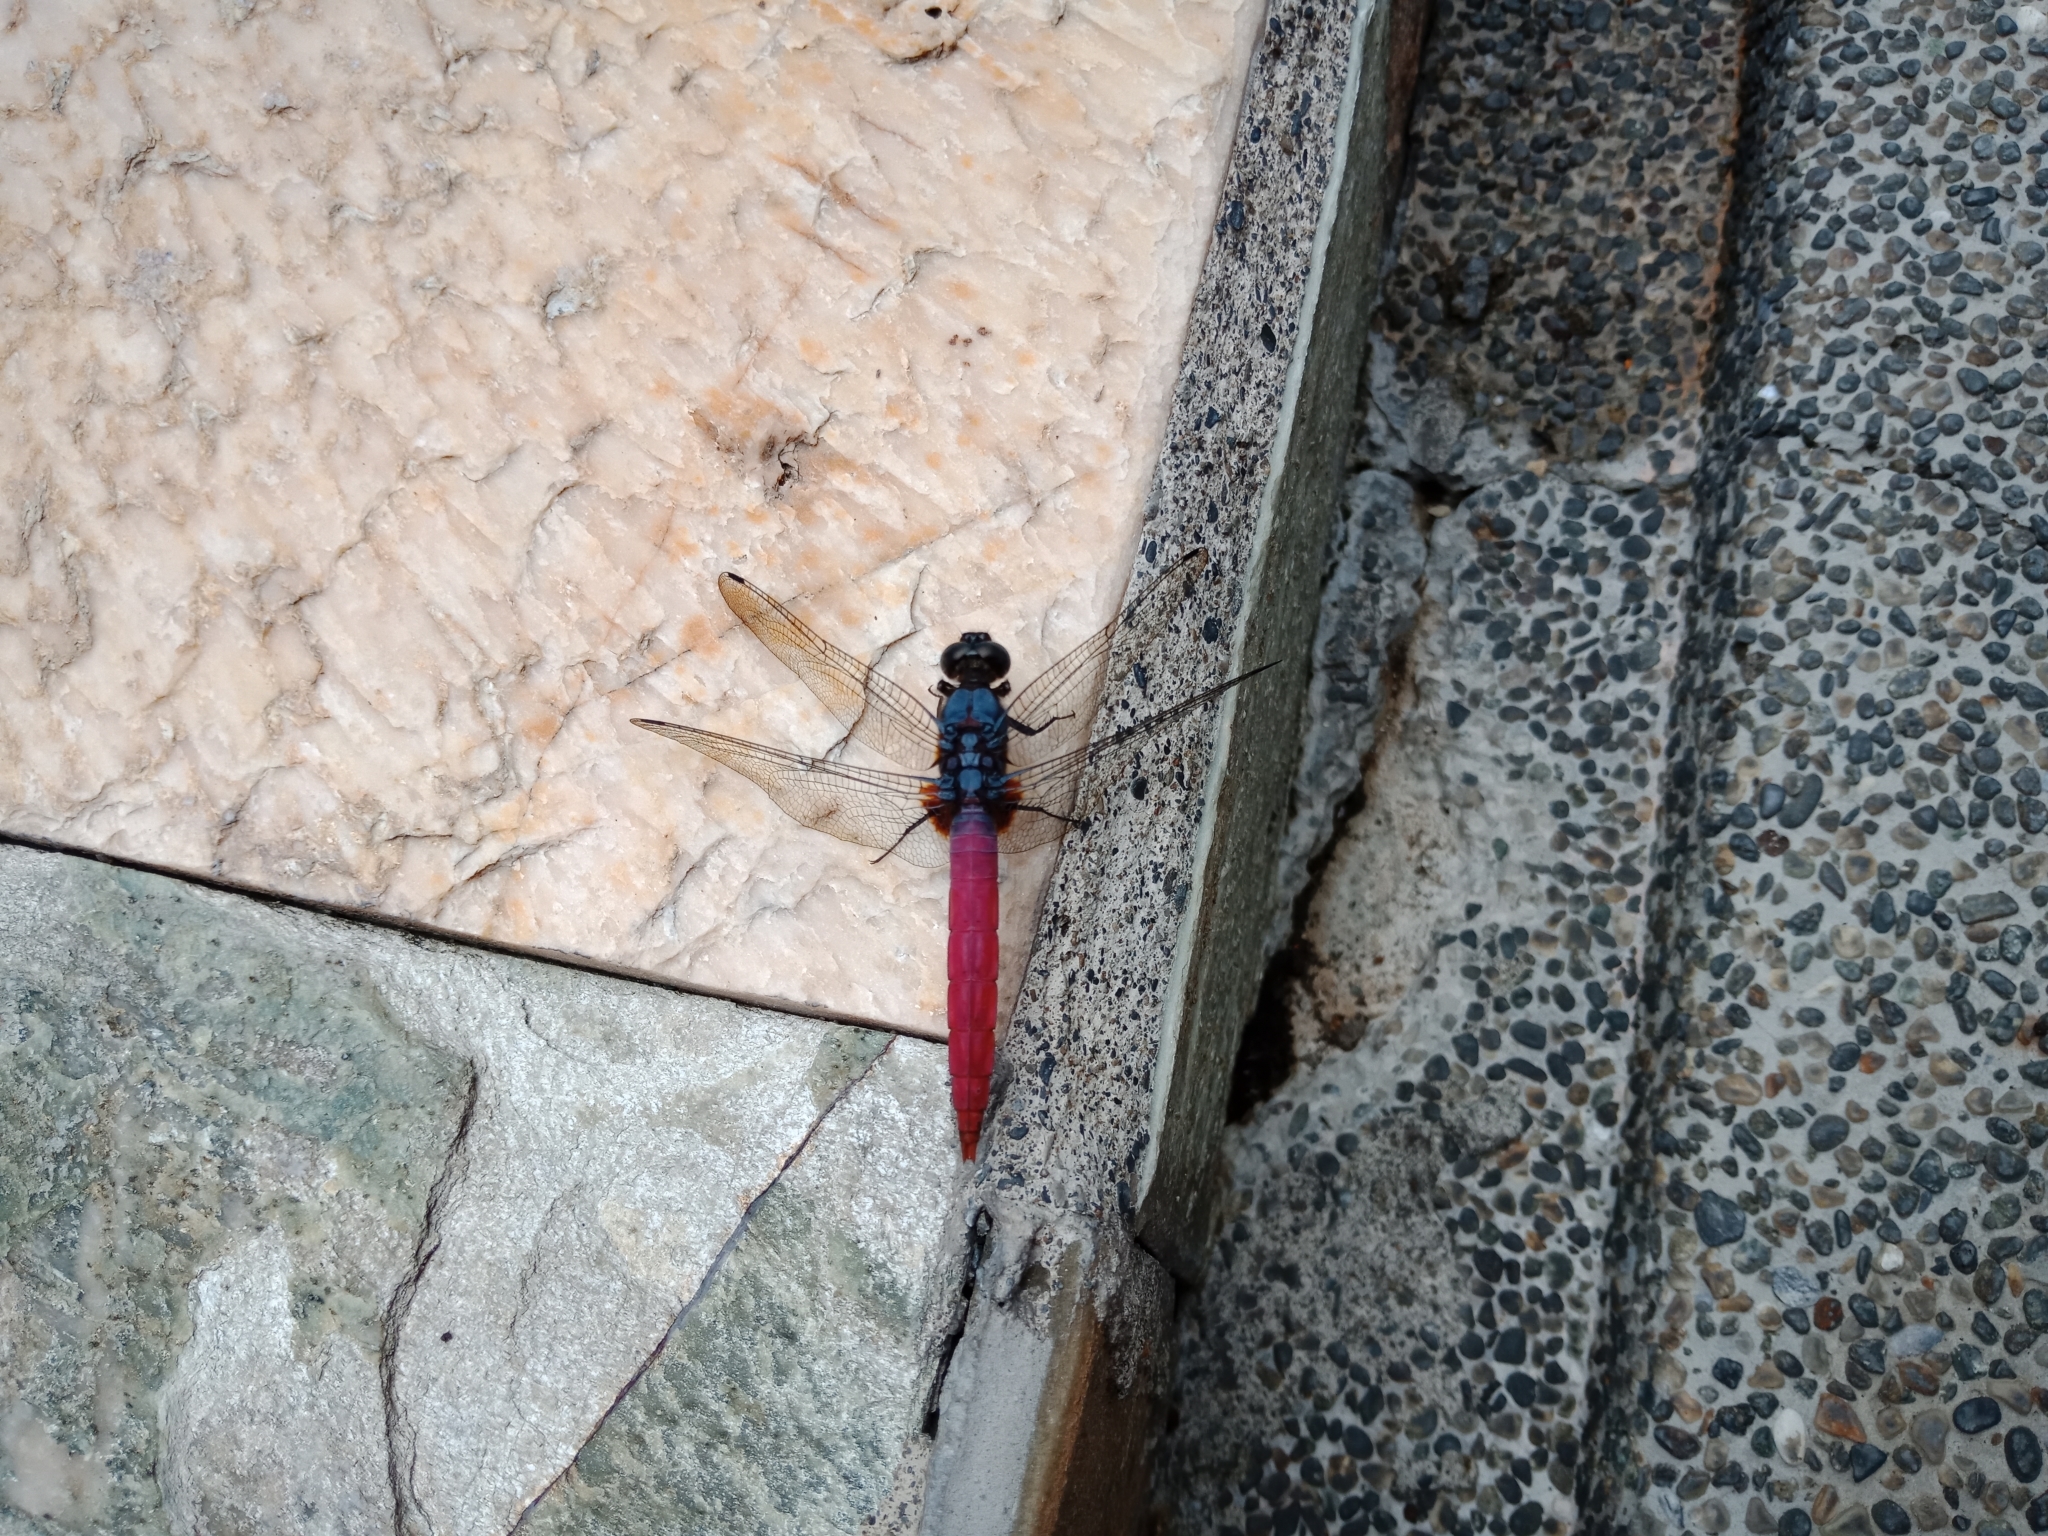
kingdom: Animalia
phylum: Arthropoda
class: Insecta
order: Odonata
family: Libellulidae
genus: Orthetrum
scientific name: Orthetrum pruinosum
